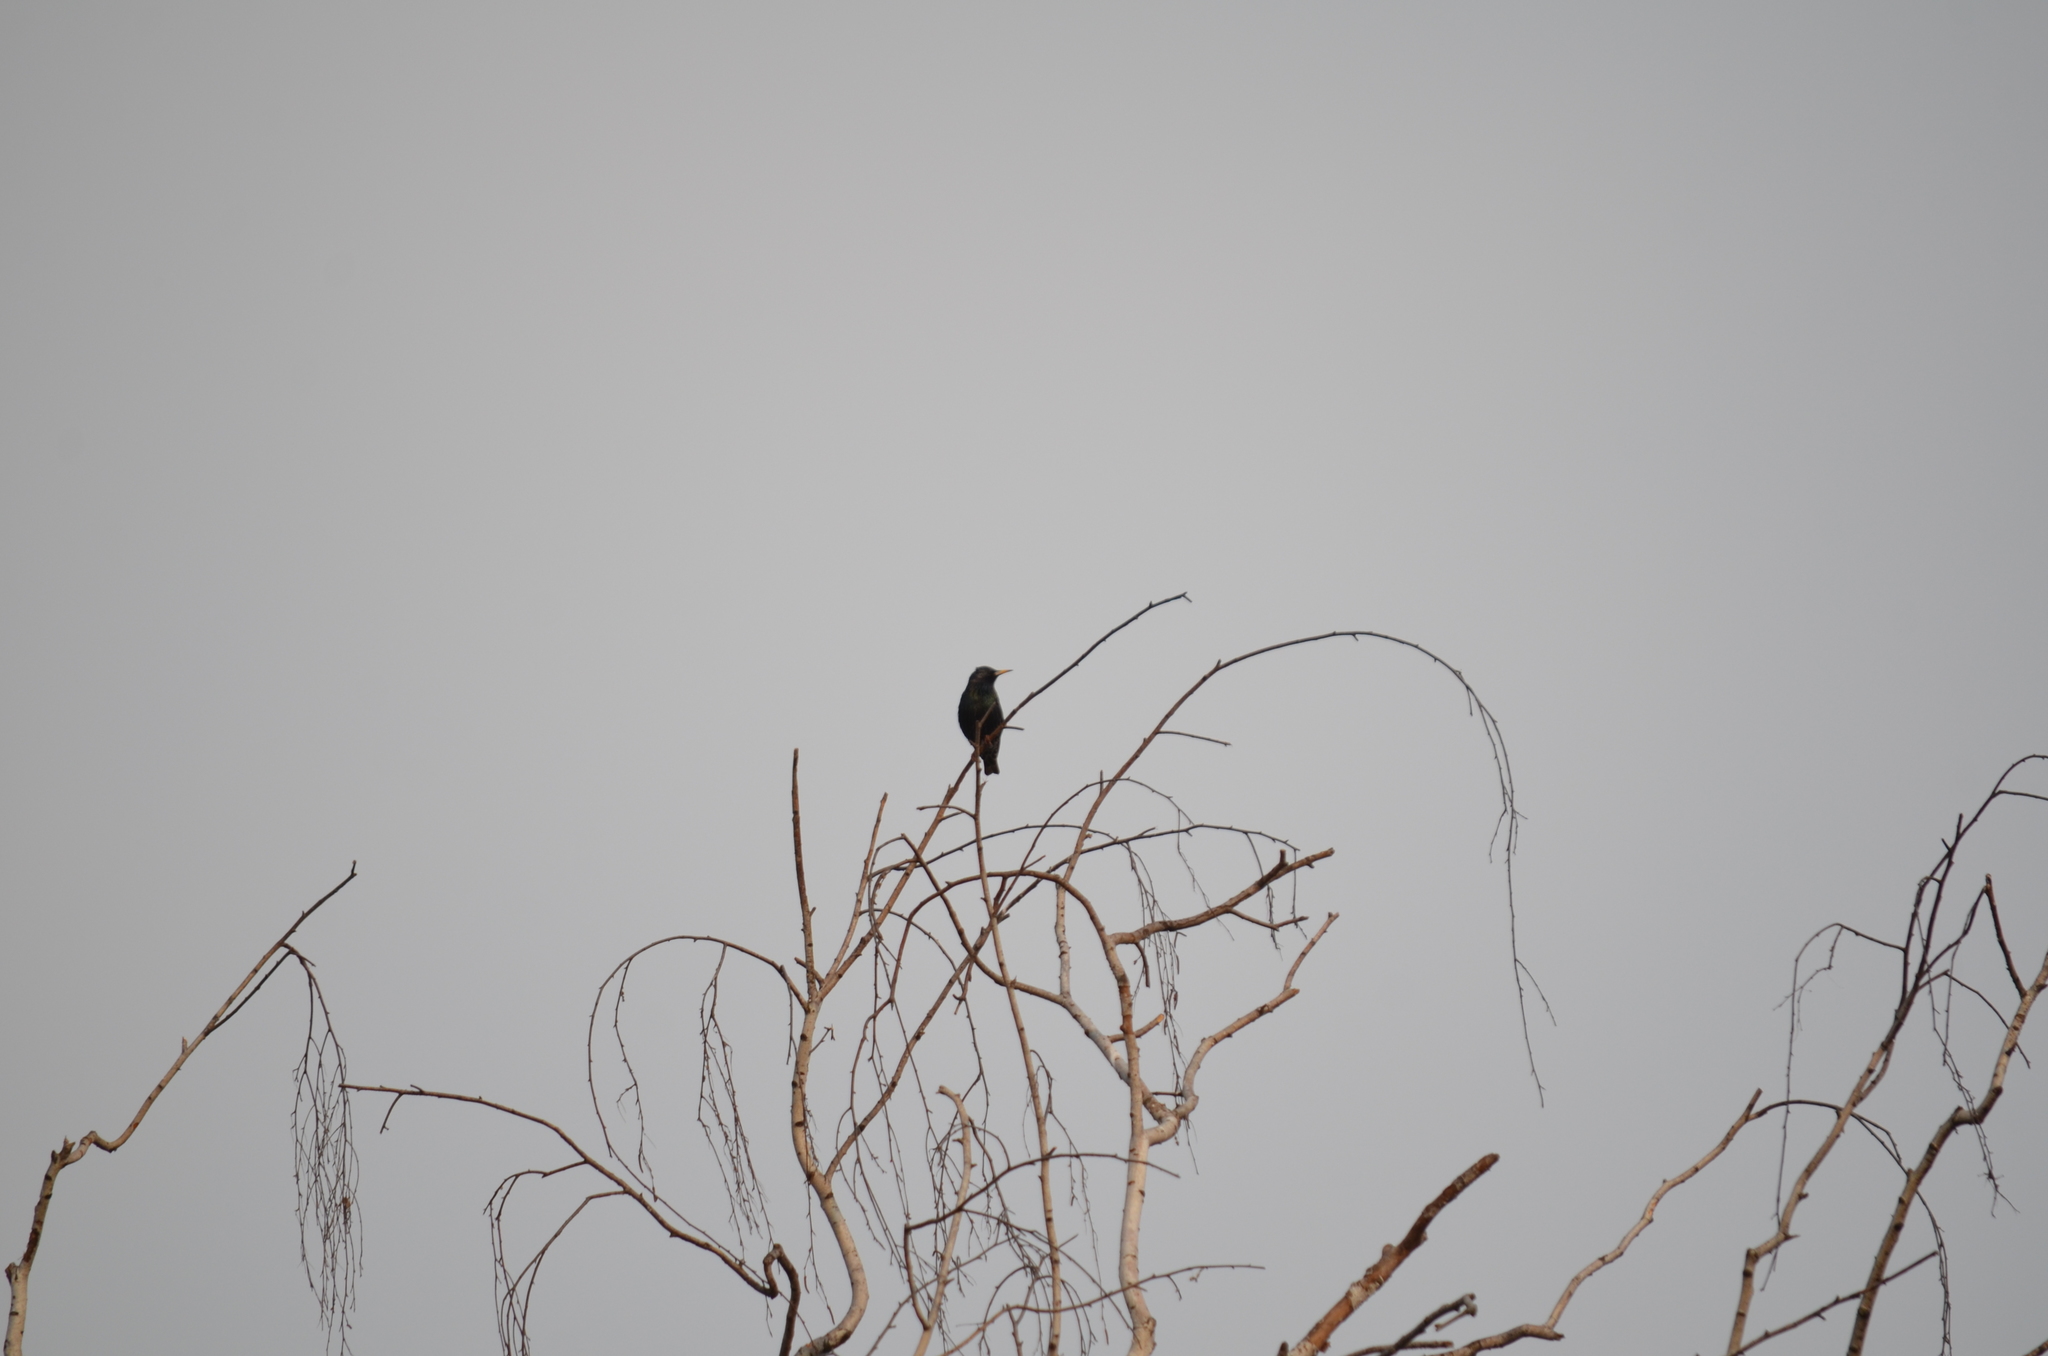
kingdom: Animalia
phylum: Chordata
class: Aves
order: Passeriformes
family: Sturnidae
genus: Sturnus
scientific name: Sturnus vulgaris
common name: Common starling
